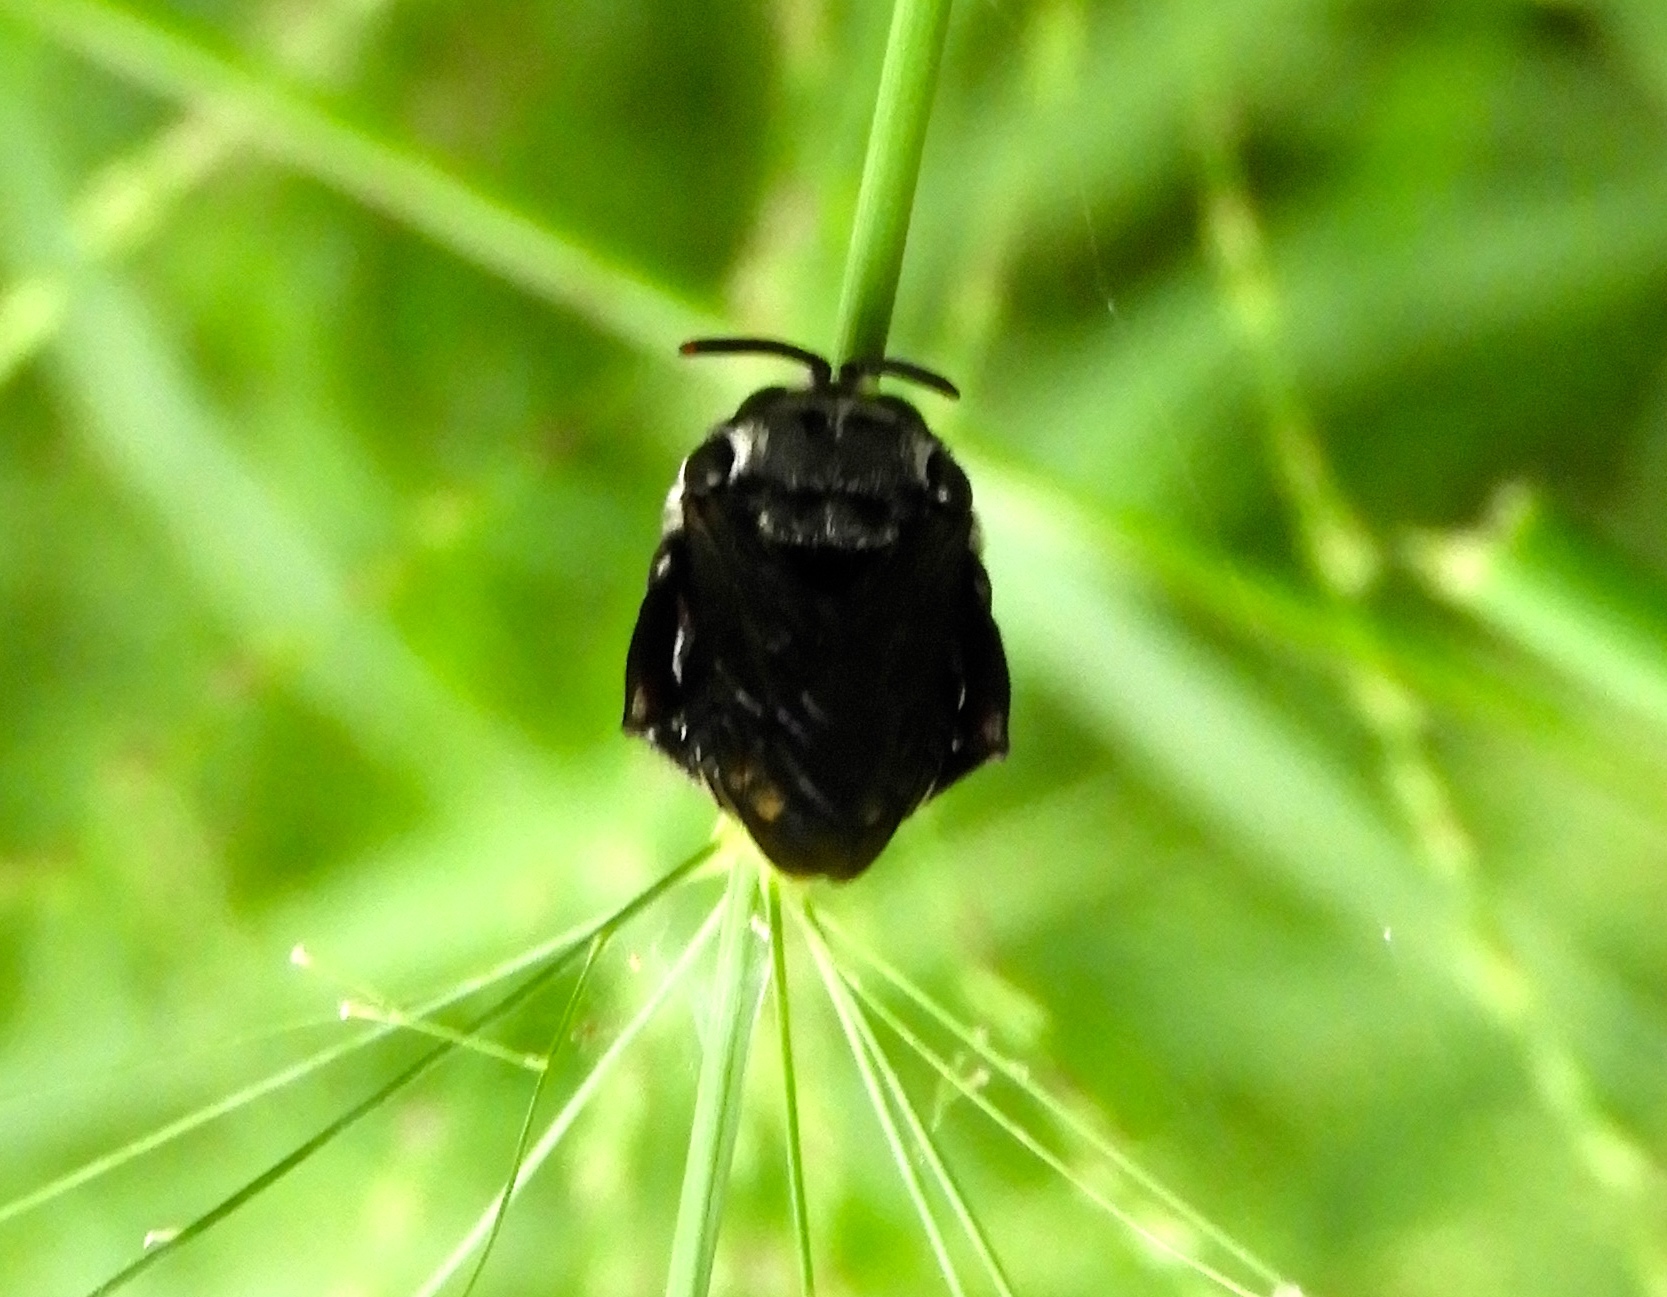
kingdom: Animalia
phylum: Arthropoda
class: Insecta
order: Hymenoptera
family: Apidae
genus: Apidae
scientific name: Apidae
